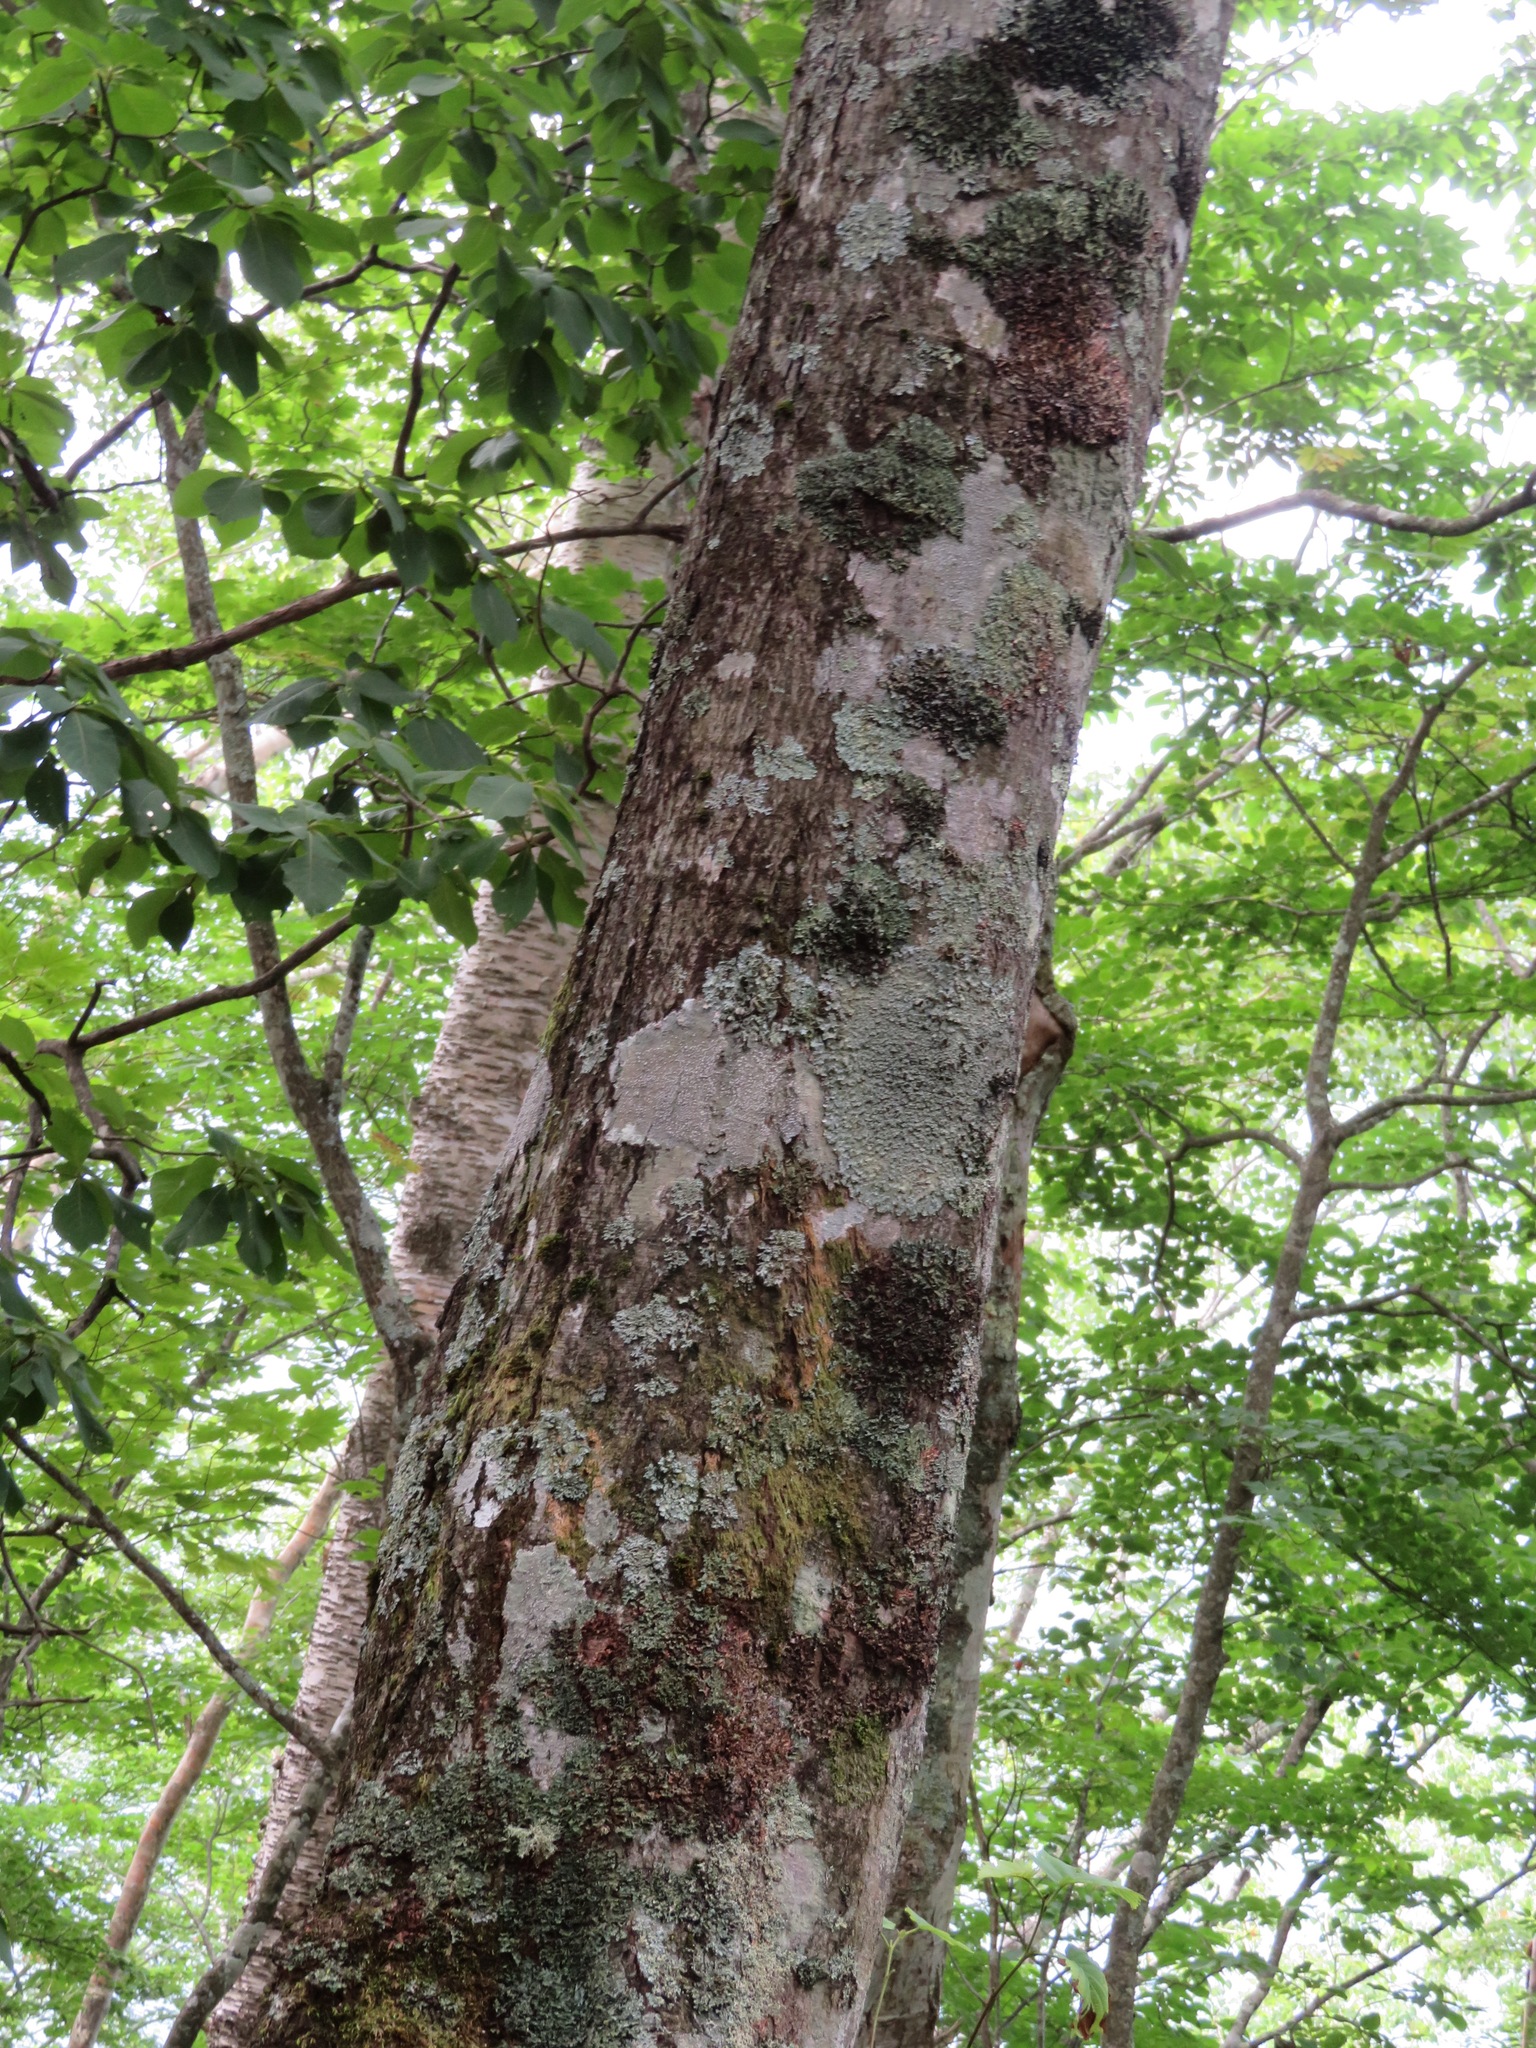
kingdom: Plantae
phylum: Tracheophyta
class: Magnoliopsida
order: Fagales
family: Betulaceae
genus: Alnus
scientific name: Alnus hirsuta
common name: Manchurian alder
